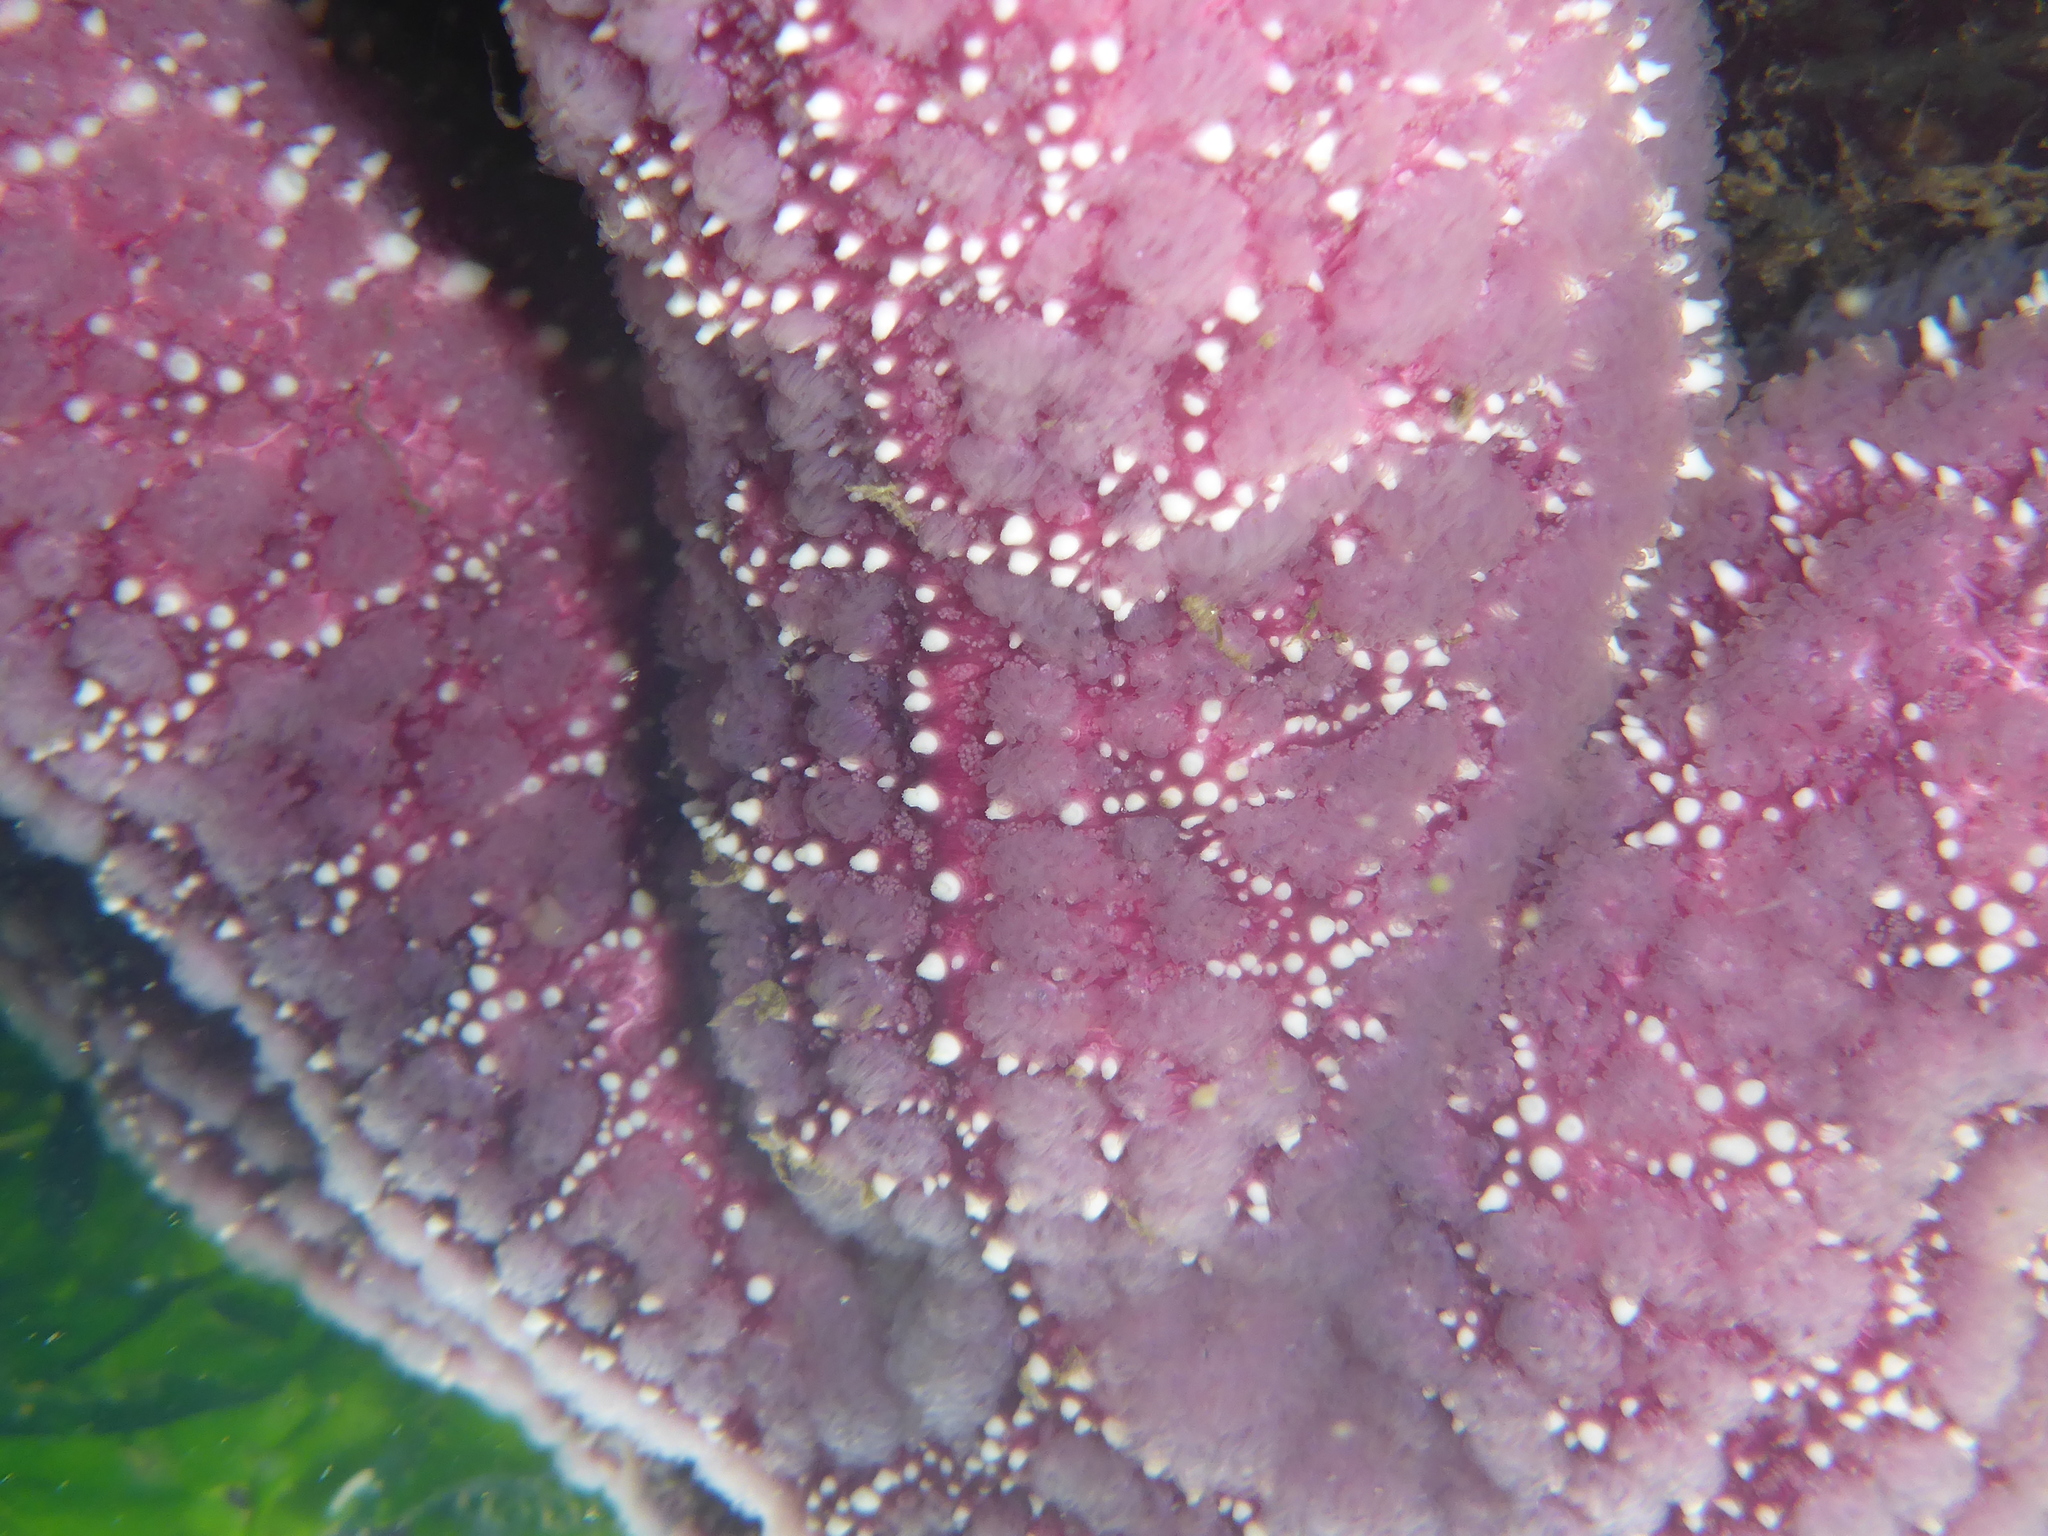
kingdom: Animalia
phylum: Echinodermata
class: Asteroidea
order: Forcipulatida
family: Asteriidae
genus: Pisaster
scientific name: Pisaster ochraceus
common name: Ochre stars
